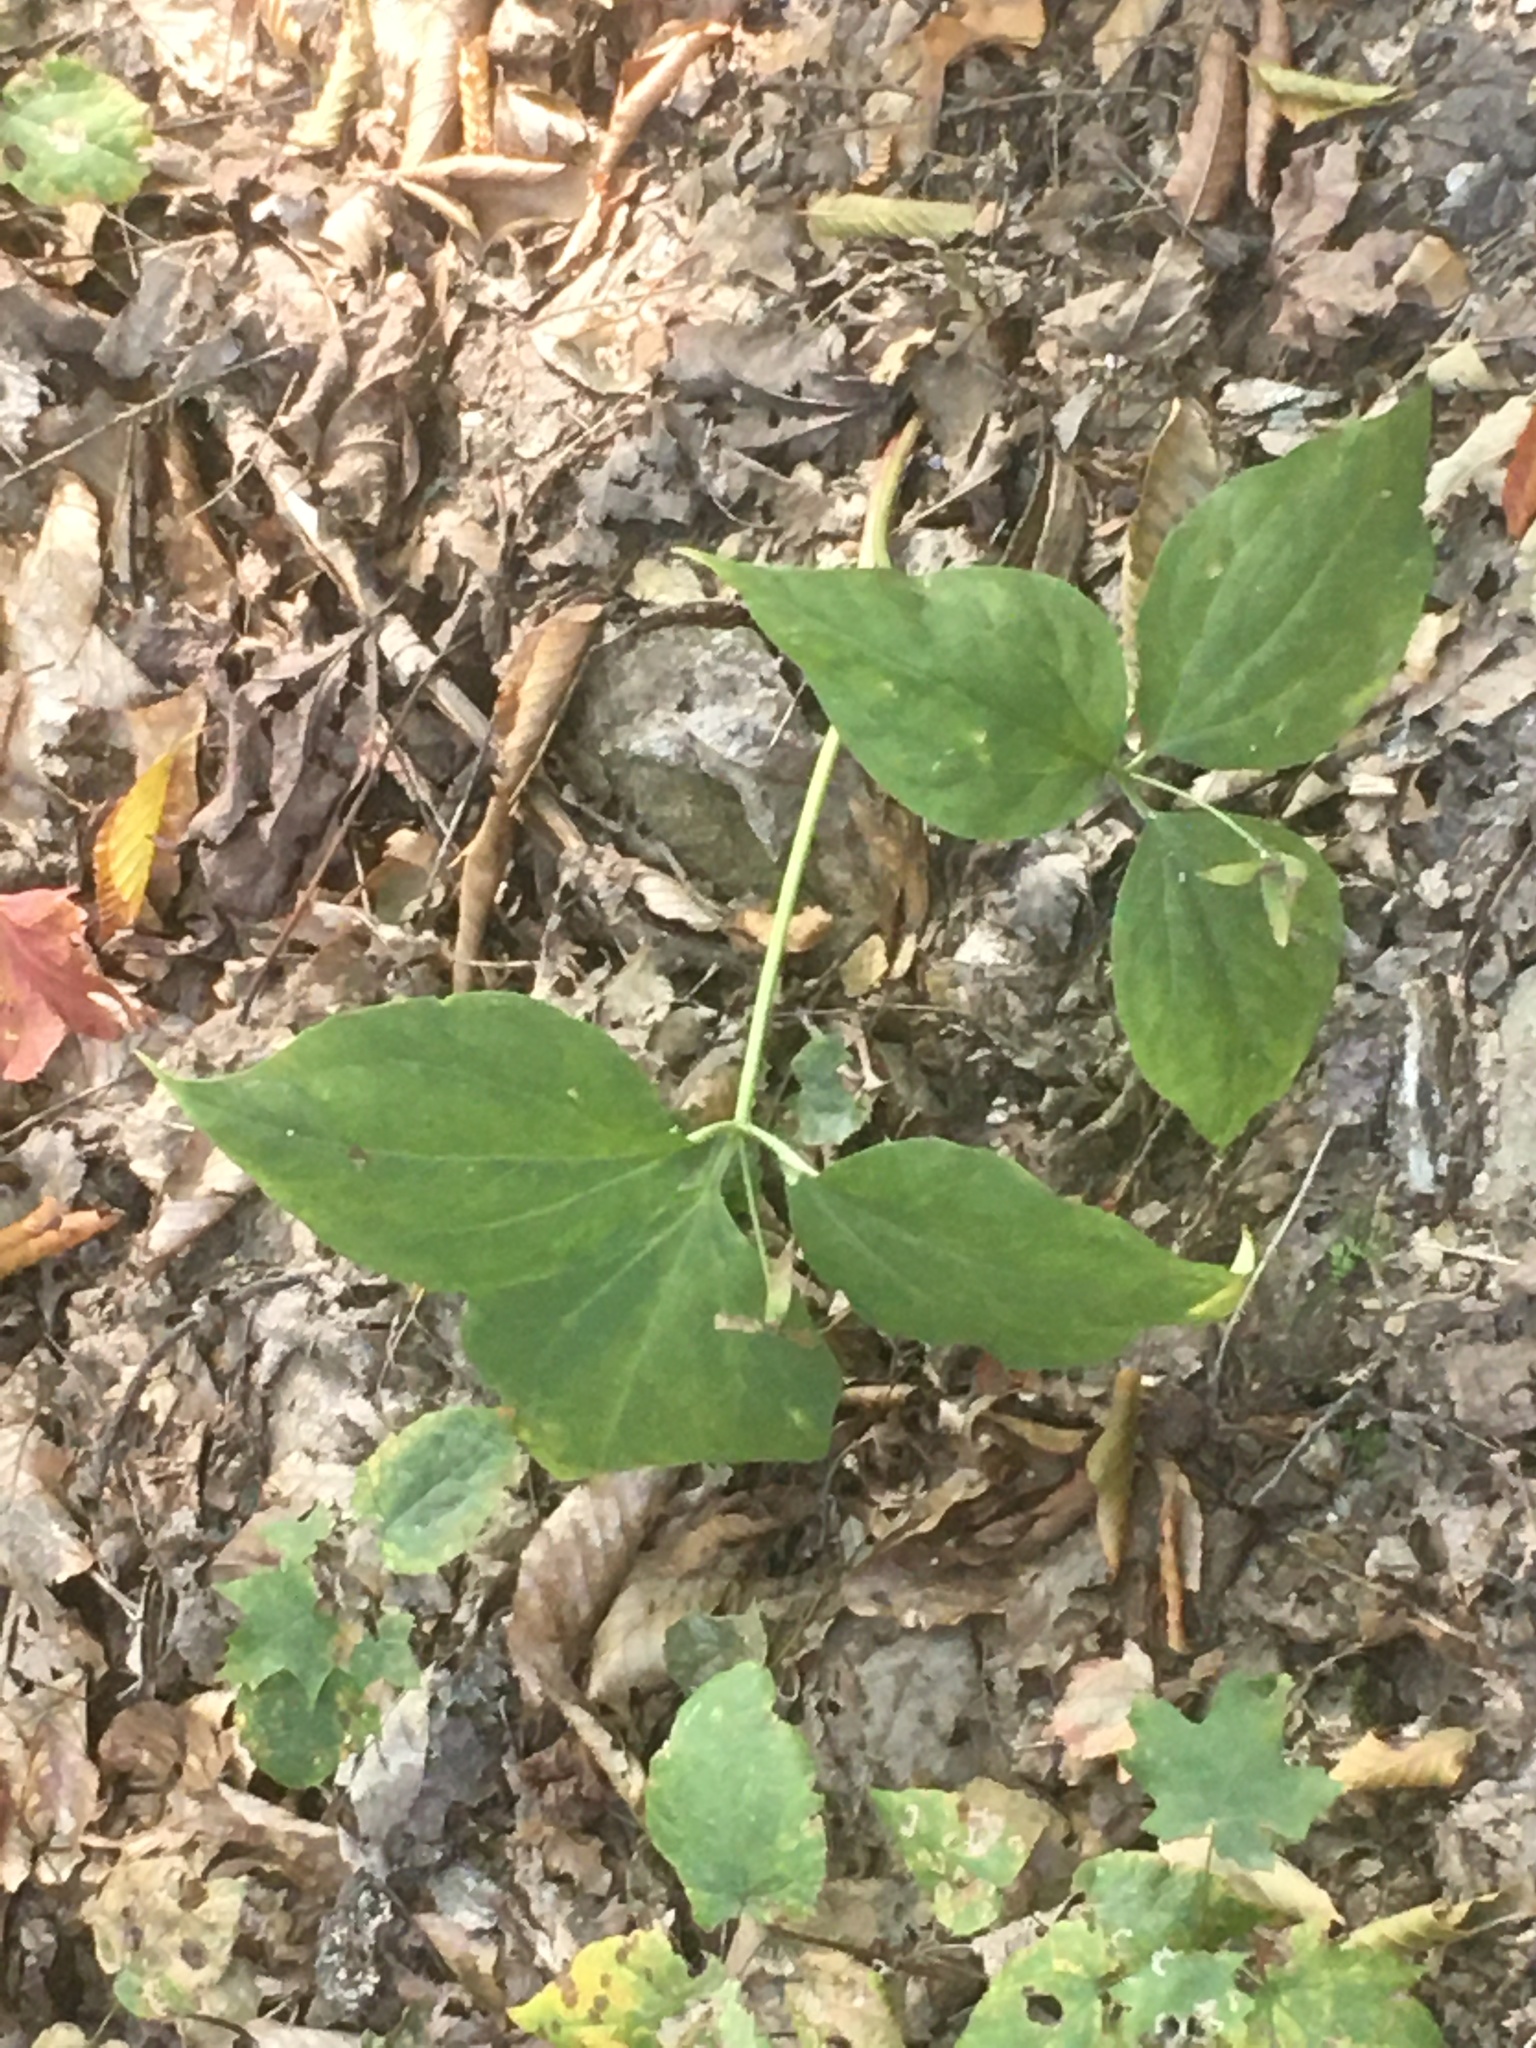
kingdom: Plantae
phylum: Tracheophyta
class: Liliopsida
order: Liliales
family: Melanthiaceae
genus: Trillium
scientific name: Trillium undulatum
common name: Paint trillium
